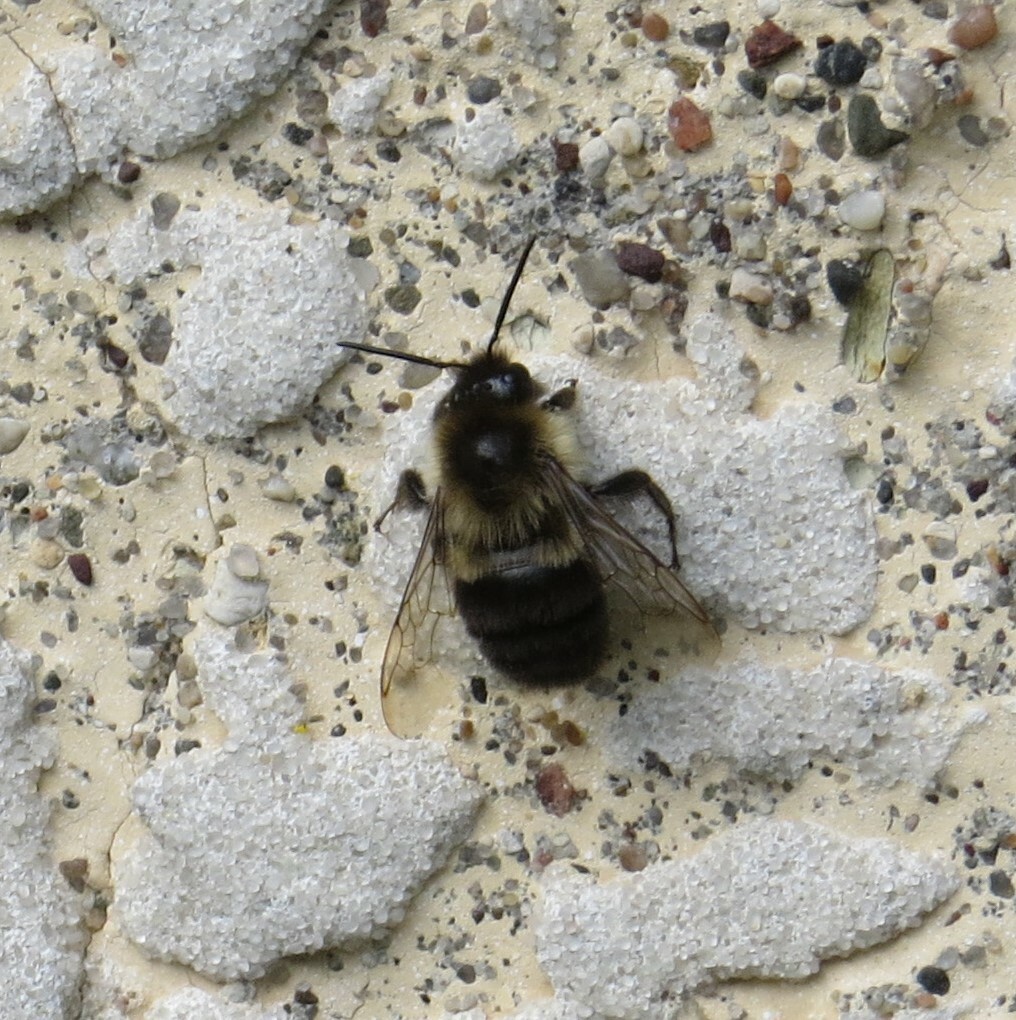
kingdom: Animalia
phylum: Arthropoda
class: Insecta
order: Hymenoptera
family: Apidae
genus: Bombus
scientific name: Bombus impatiens
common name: Common eastern bumble bee
